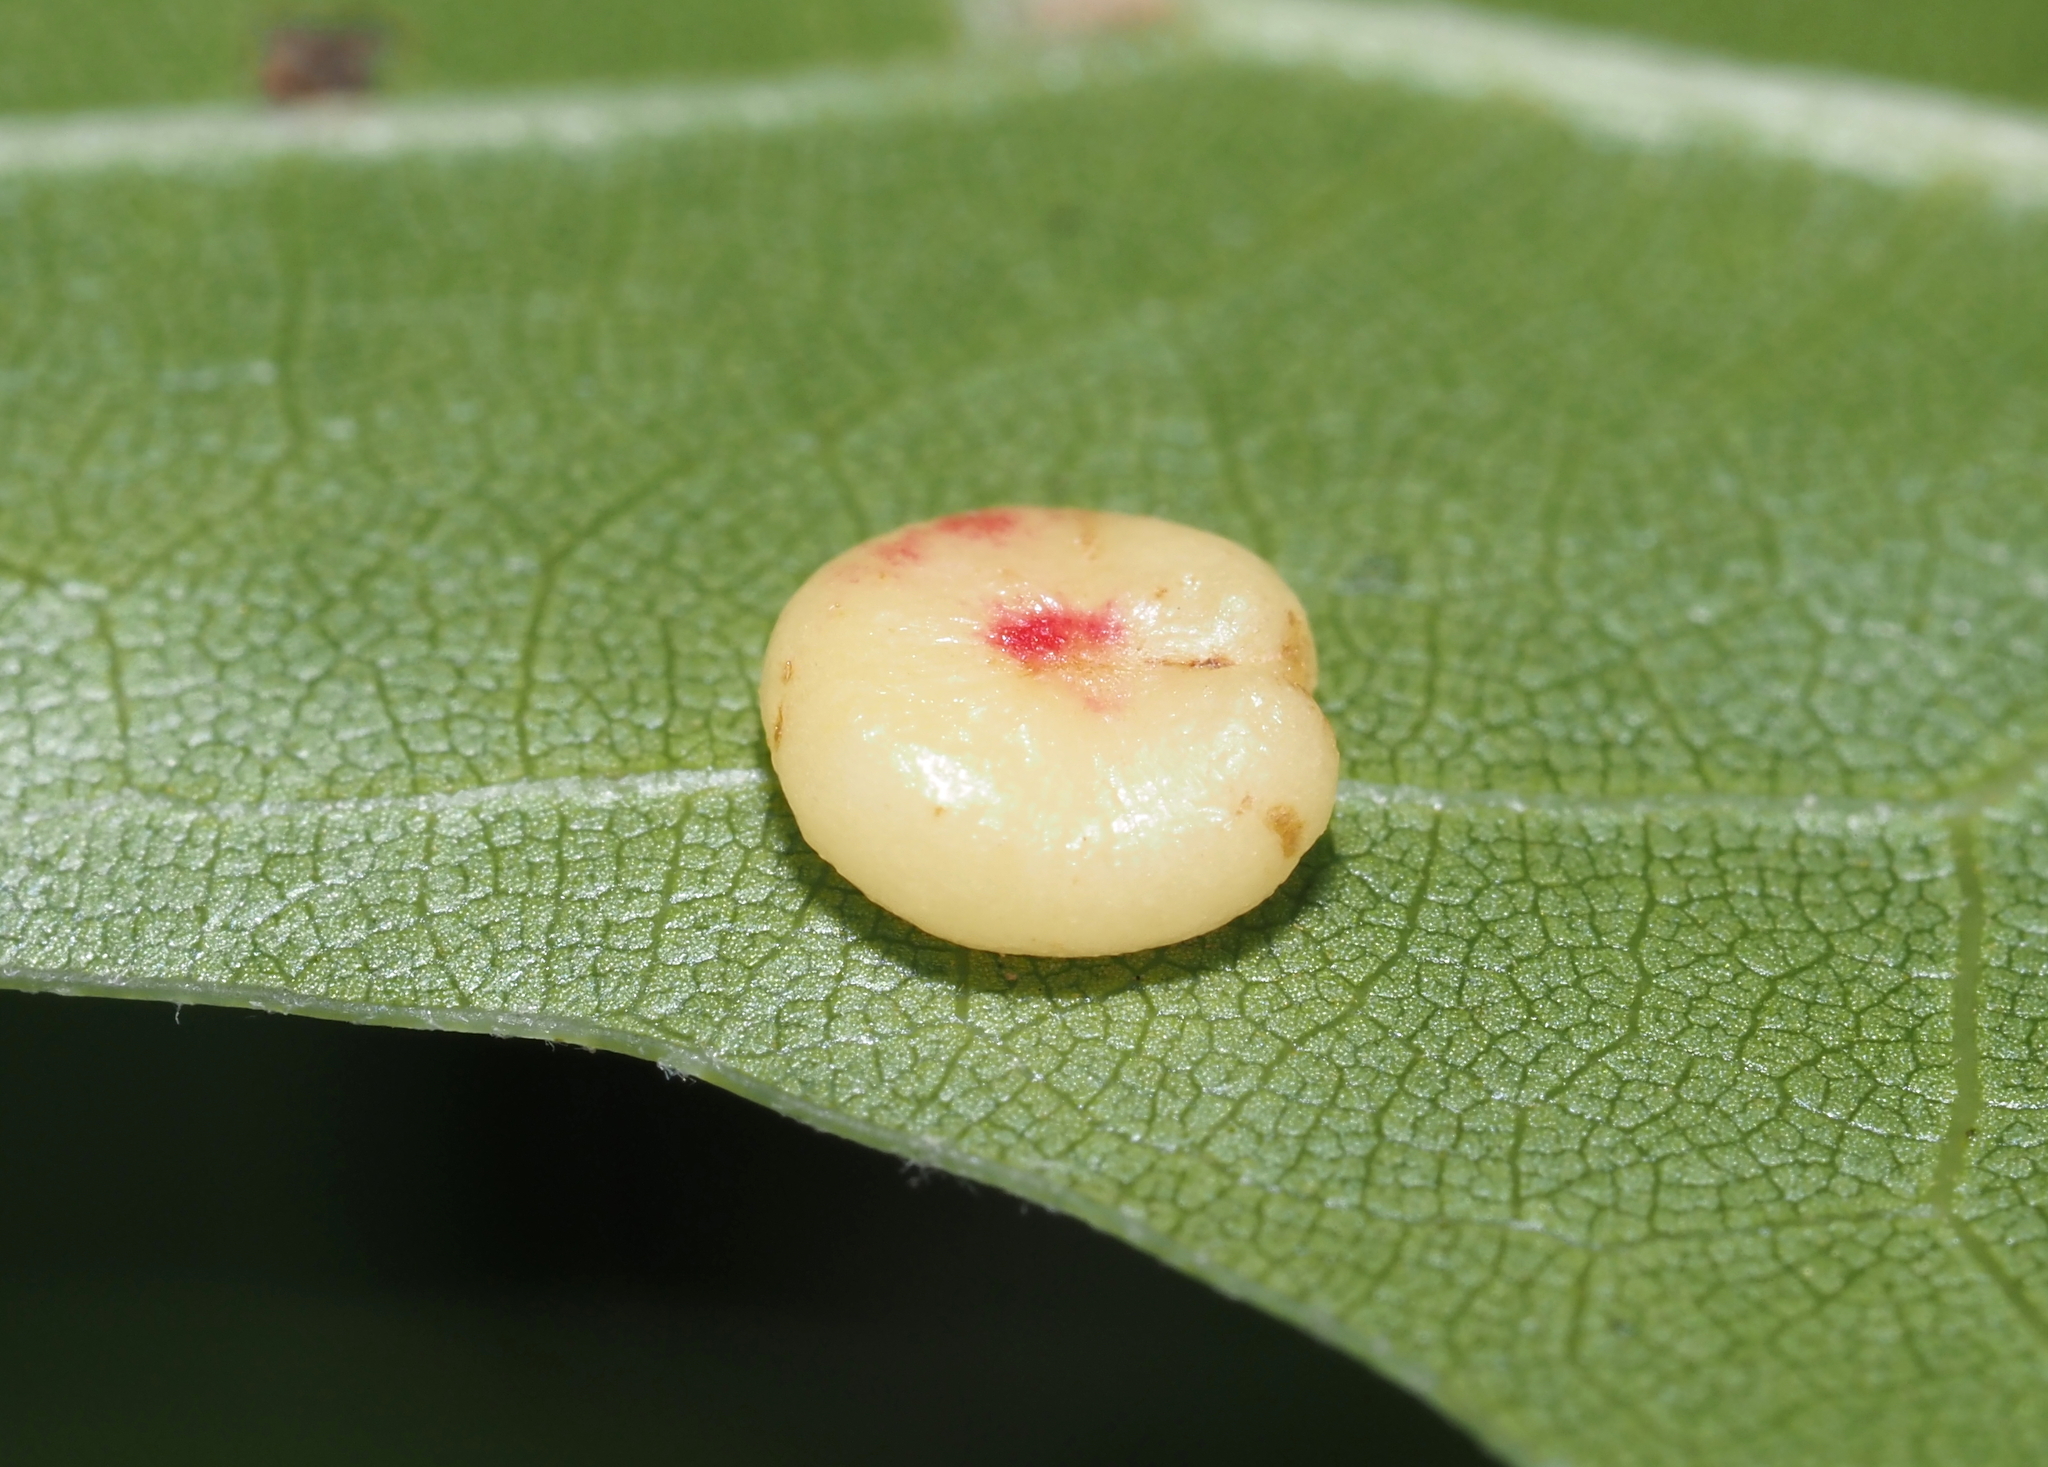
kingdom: Animalia
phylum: Arthropoda
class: Insecta
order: Hymenoptera
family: Cynipidae
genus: Dryocosmus
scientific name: Dryocosmus
